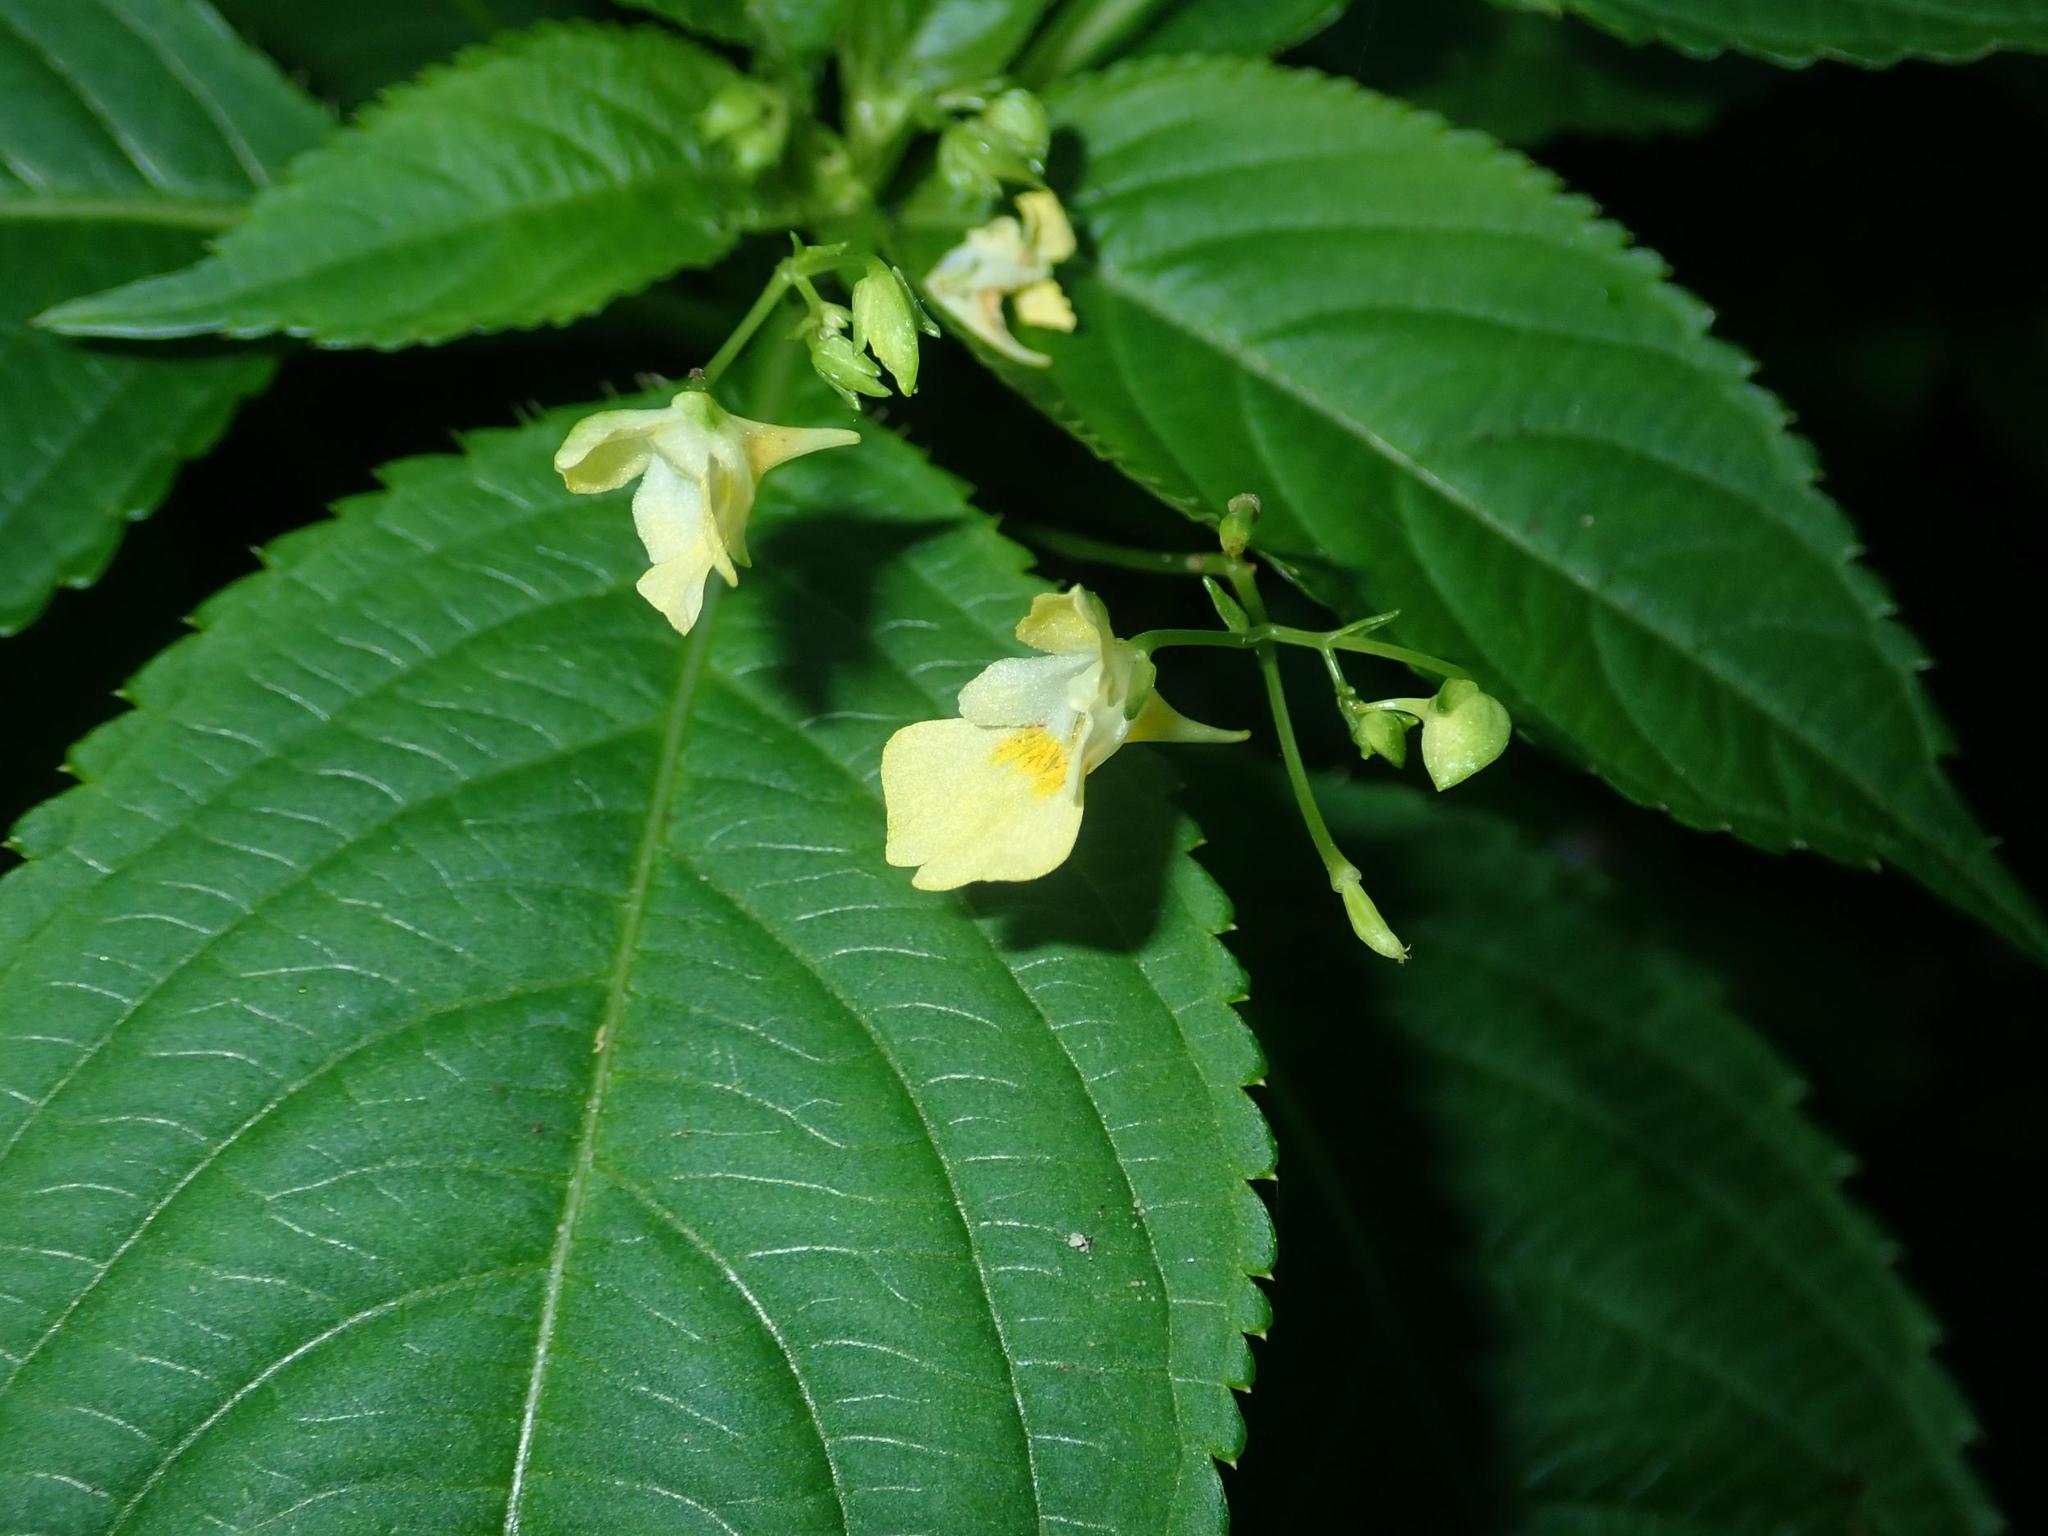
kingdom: Plantae
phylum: Tracheophyta
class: Magnoliopsida
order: Ericales
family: Balsaminaceae
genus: Impatiens
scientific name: Impatiens parviflora
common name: Small balsam
